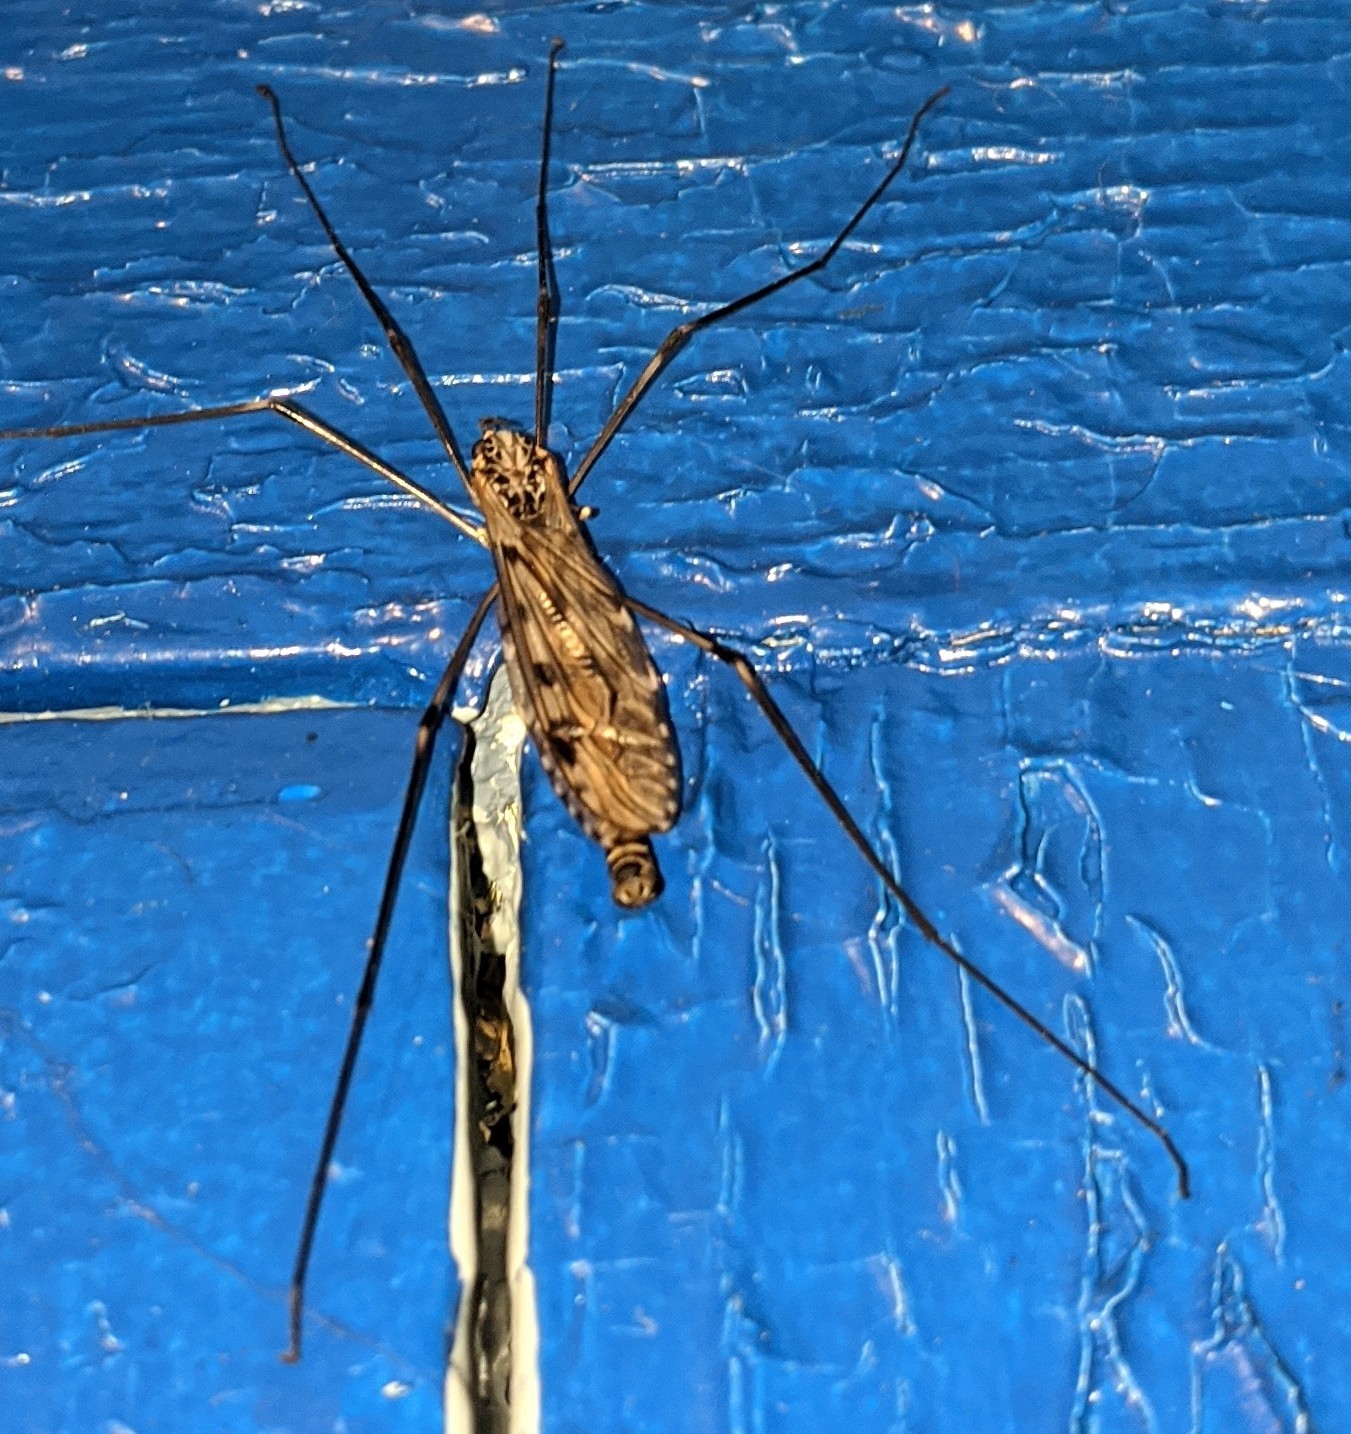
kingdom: Animalia
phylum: Arthropoda
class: Insecta
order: Diptera
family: Tipulidae
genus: Tipula
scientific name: Tipula abdominalis
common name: Giant crane fly
